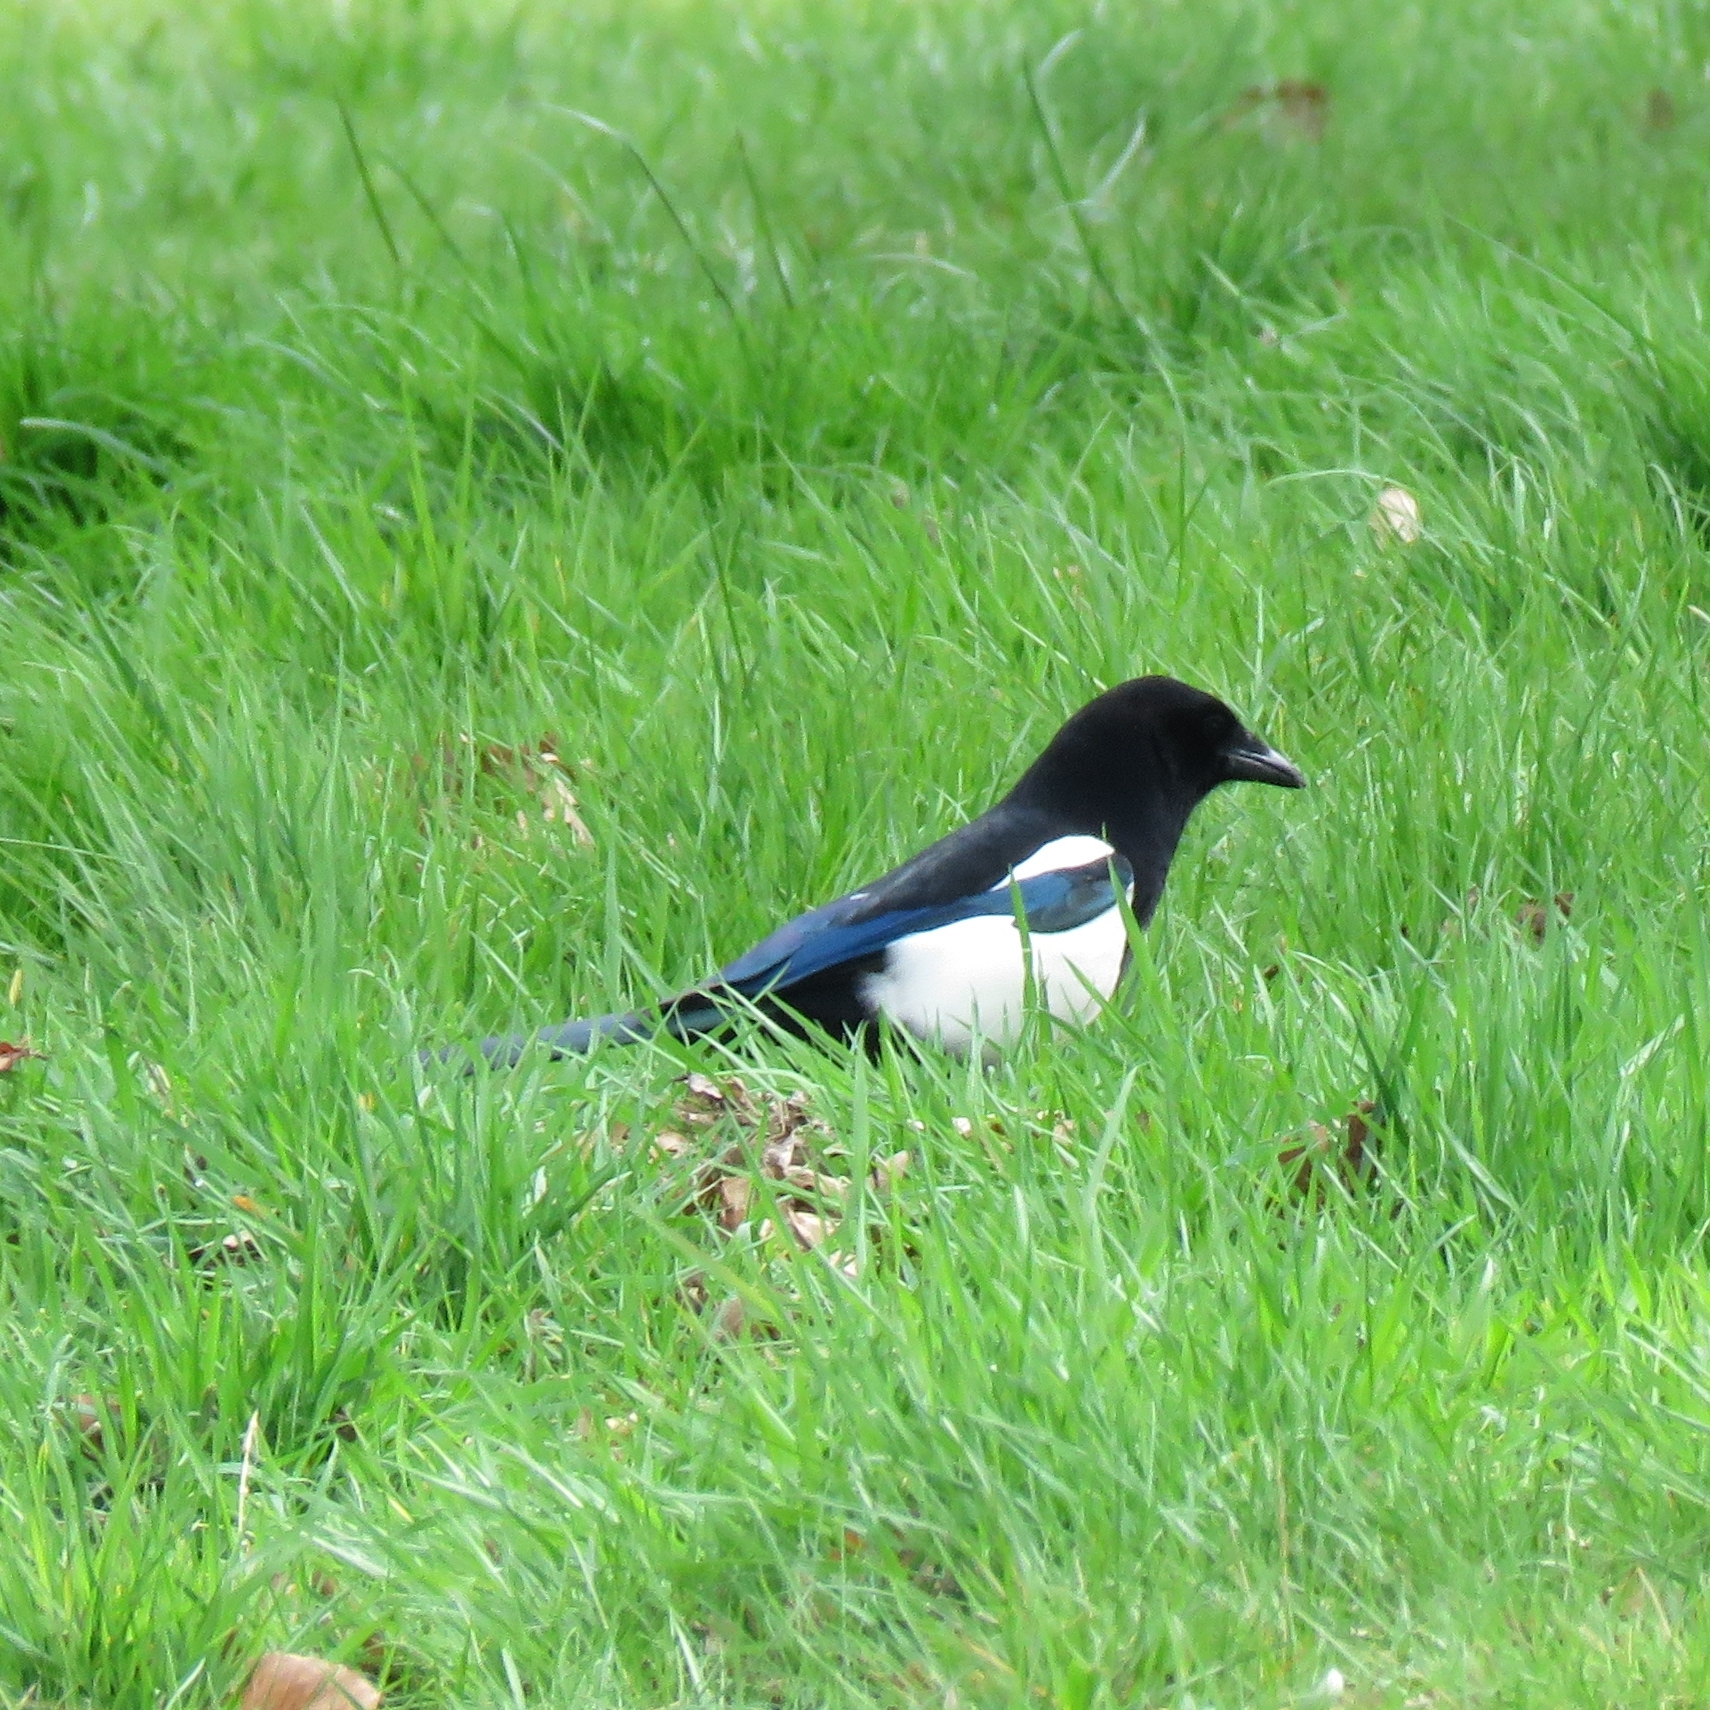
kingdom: Animalia
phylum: Chordata
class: Aves
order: Passeriformes
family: Corvidae
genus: Pica
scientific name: Pica pica
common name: Eurasian magpie
